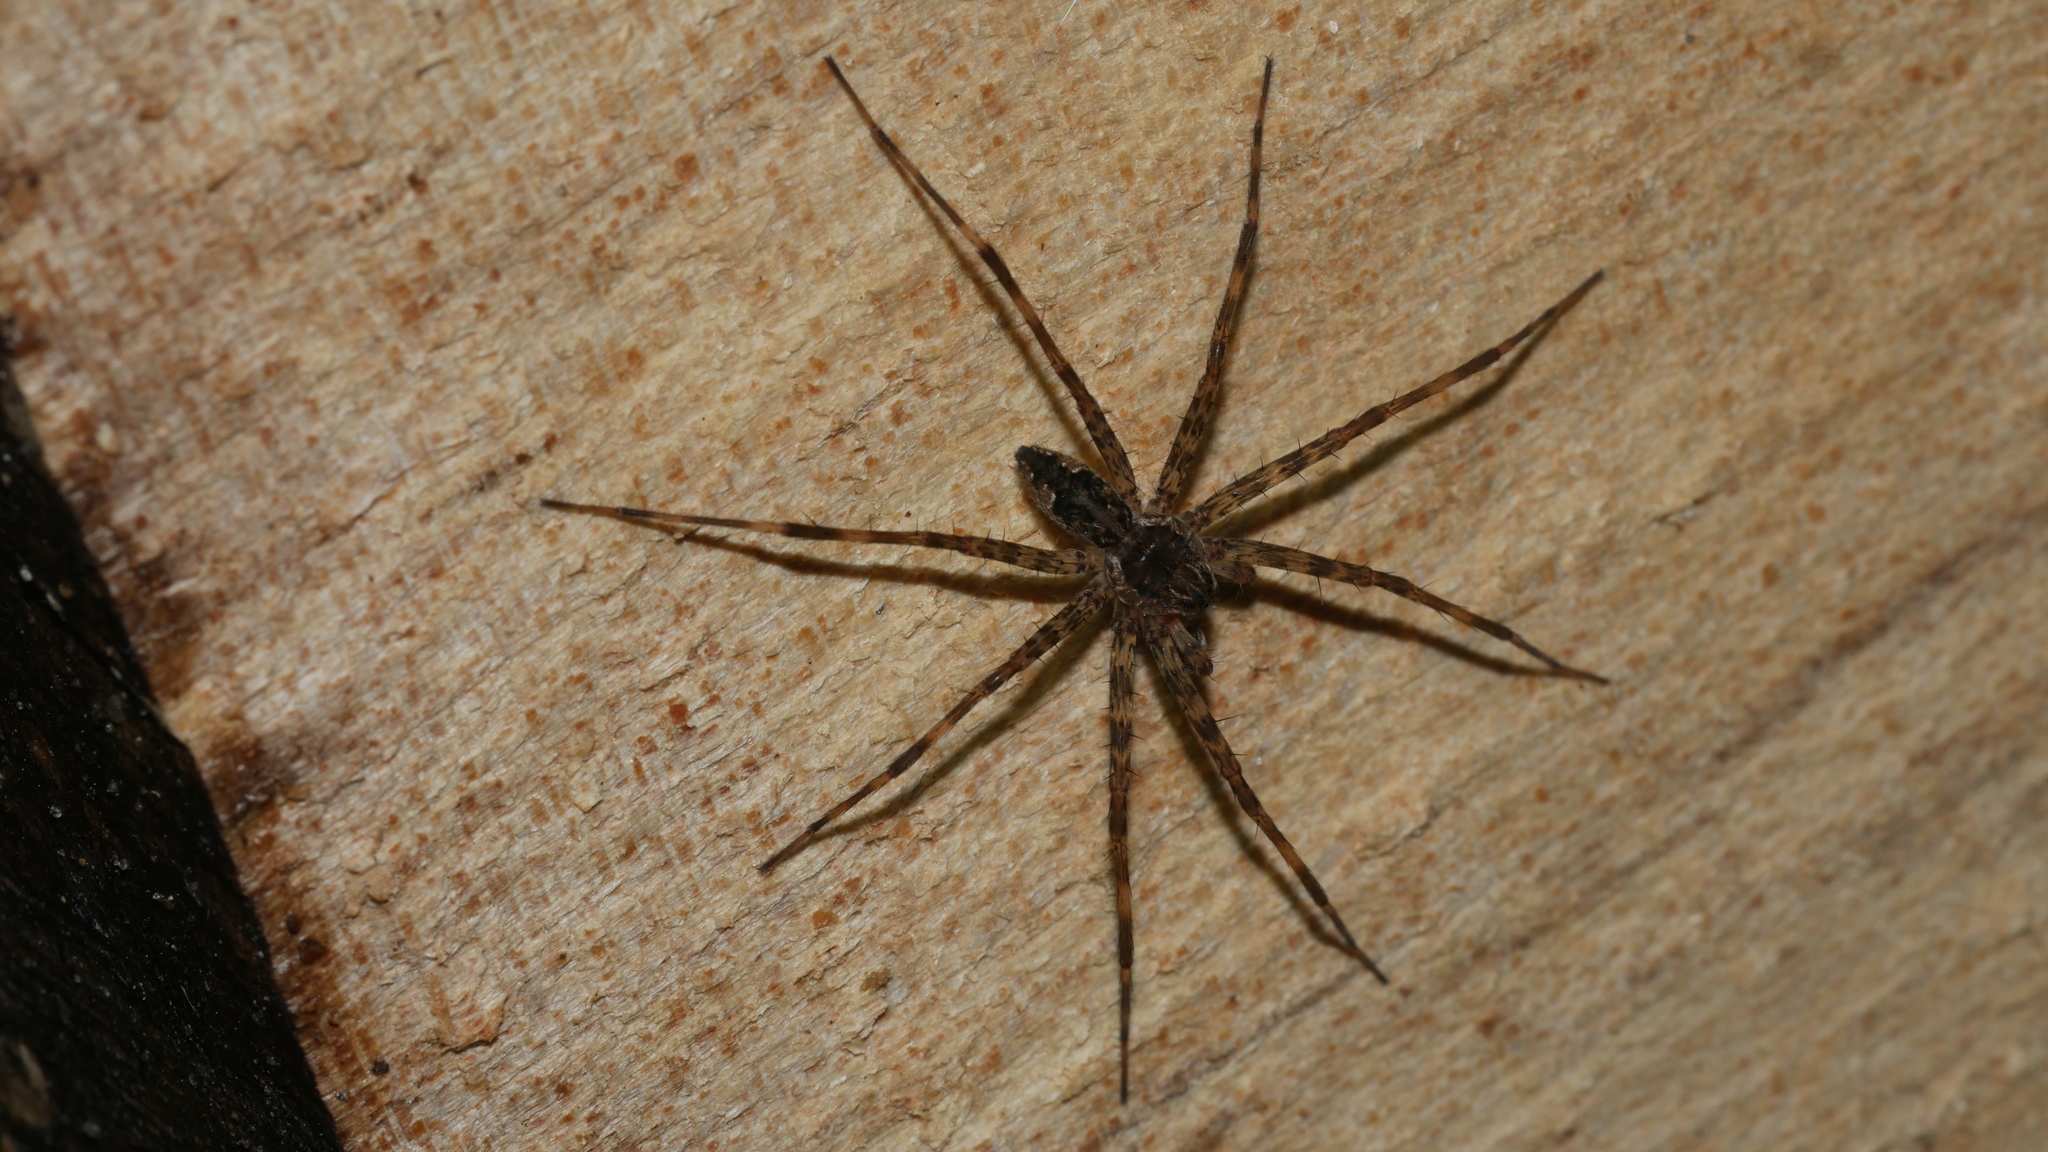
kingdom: Animalia
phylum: Arthropoda
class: Arachnida
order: Araneae
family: Pisauridae
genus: Dolomedes
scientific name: Dolomedes tenebrosus
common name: Dark fishing spider
